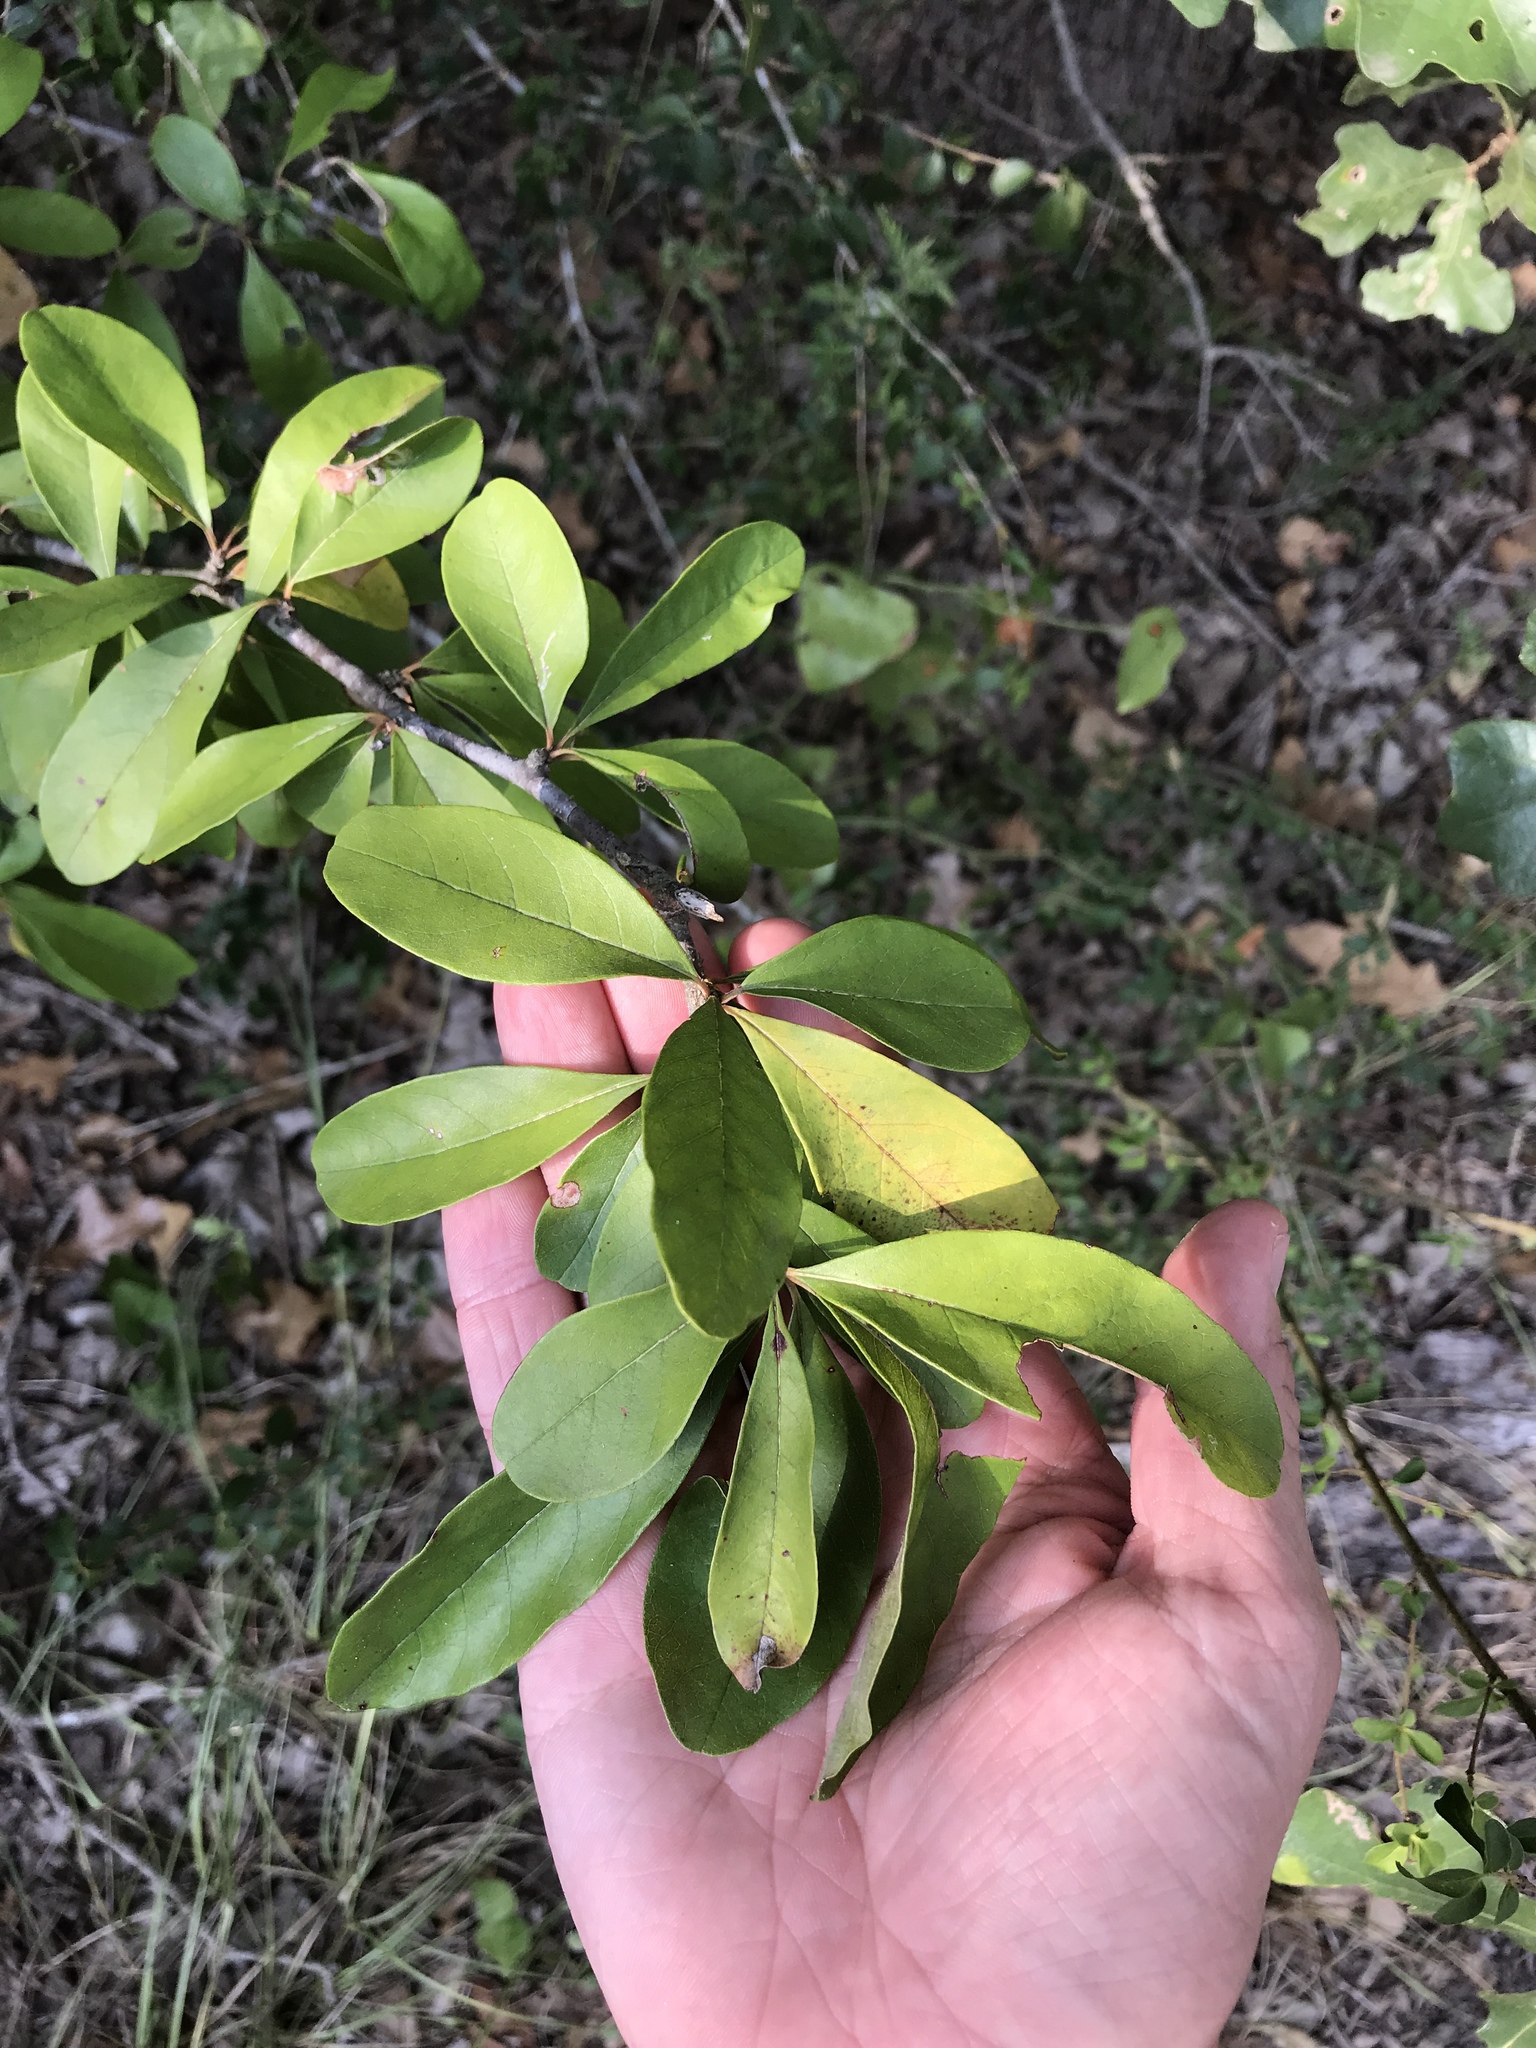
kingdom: Plantae
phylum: Tracheophyta
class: Magnoliopsida
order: Ericales
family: Sapotaceae
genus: Sideroxylon
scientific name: Sideroxylon lanuginosum
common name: Chittamwood
